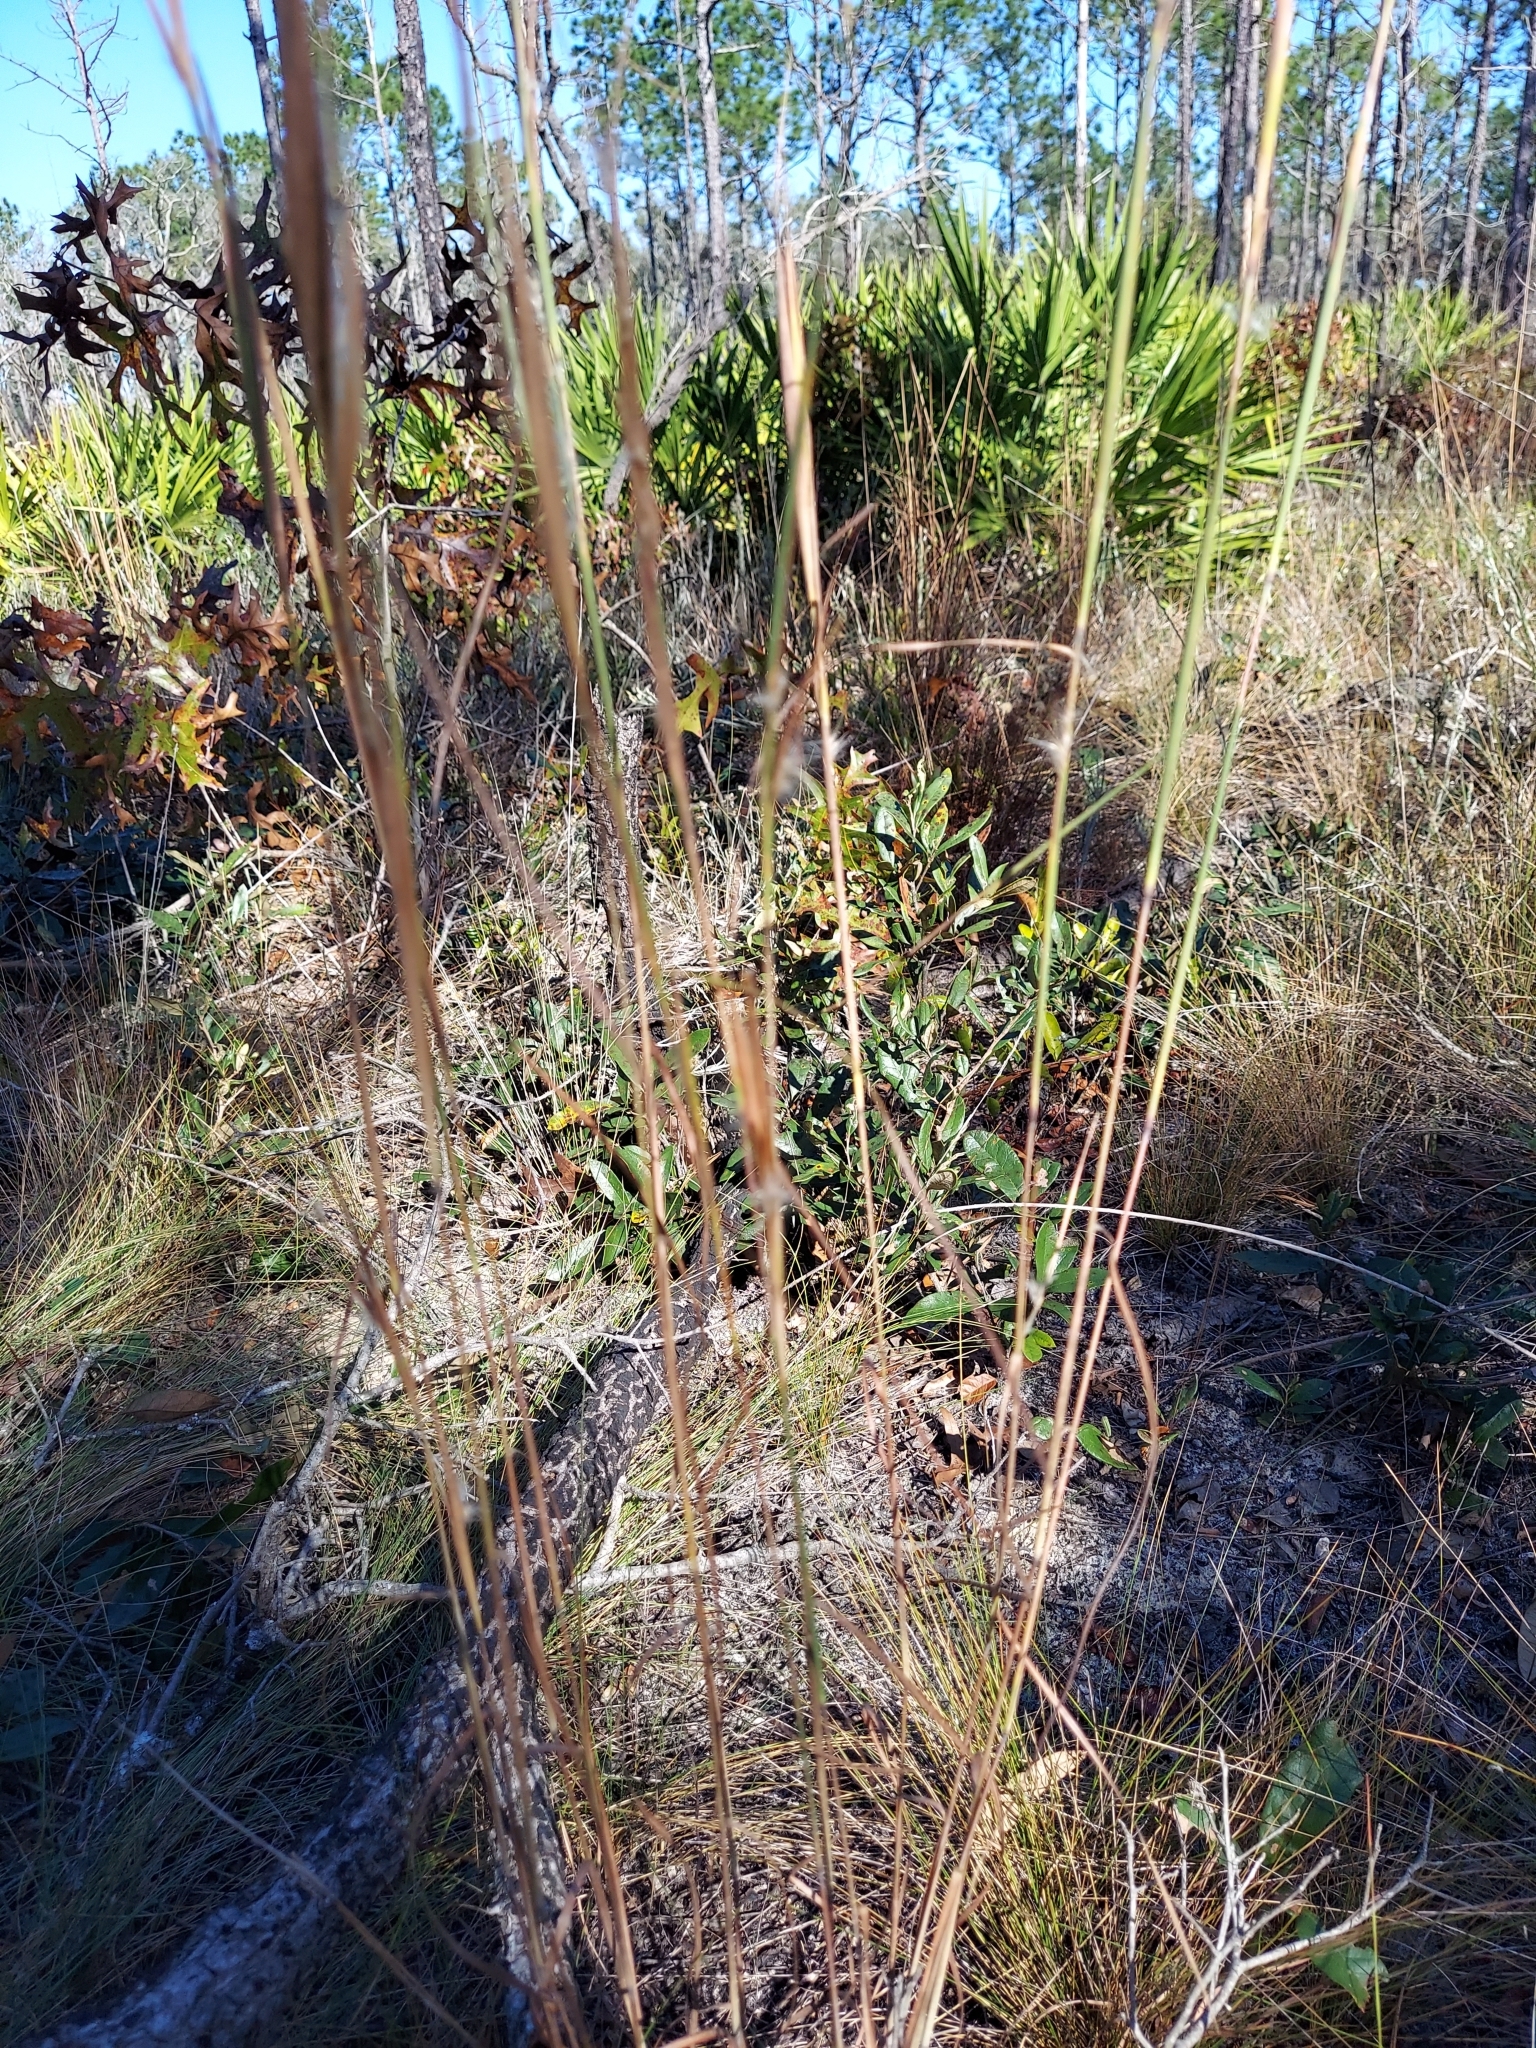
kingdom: Plantae
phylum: Tracheophyta
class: Liliopsida
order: Poales
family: Poaceae
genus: Andropogon
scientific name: Andropogon gyrans
